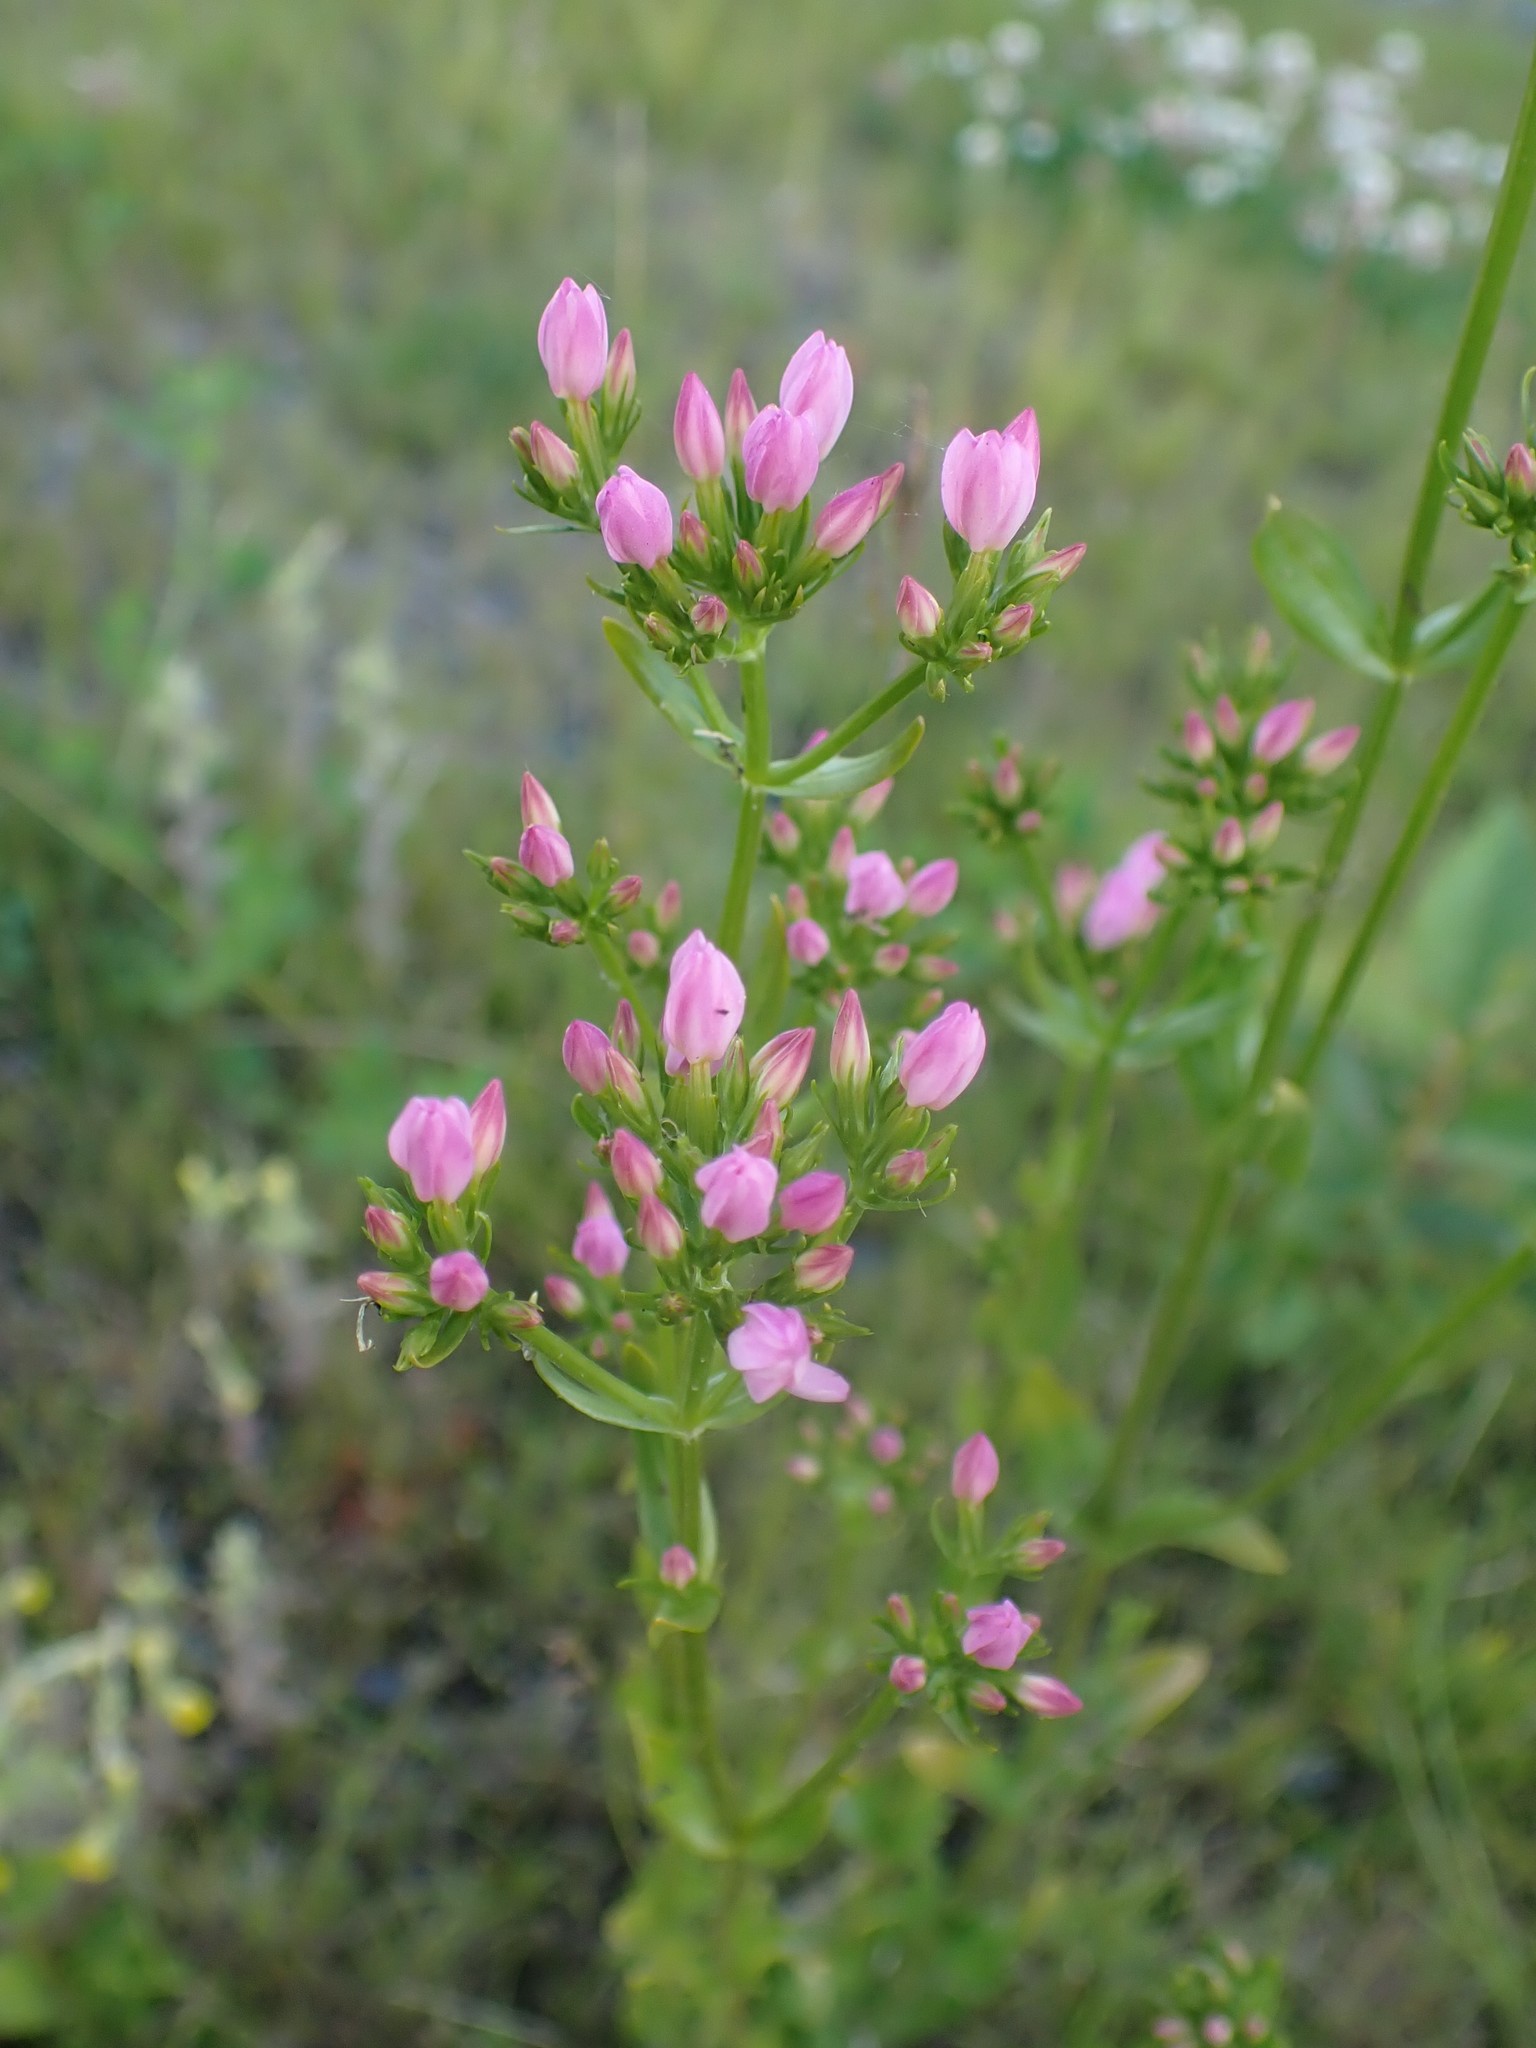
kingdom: Plantae
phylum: Tracheophyta
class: Magnoliopsida
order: Gentianales
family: Gentianaceae
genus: Centaurium
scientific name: Centaurium erythraea
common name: Common centaury
